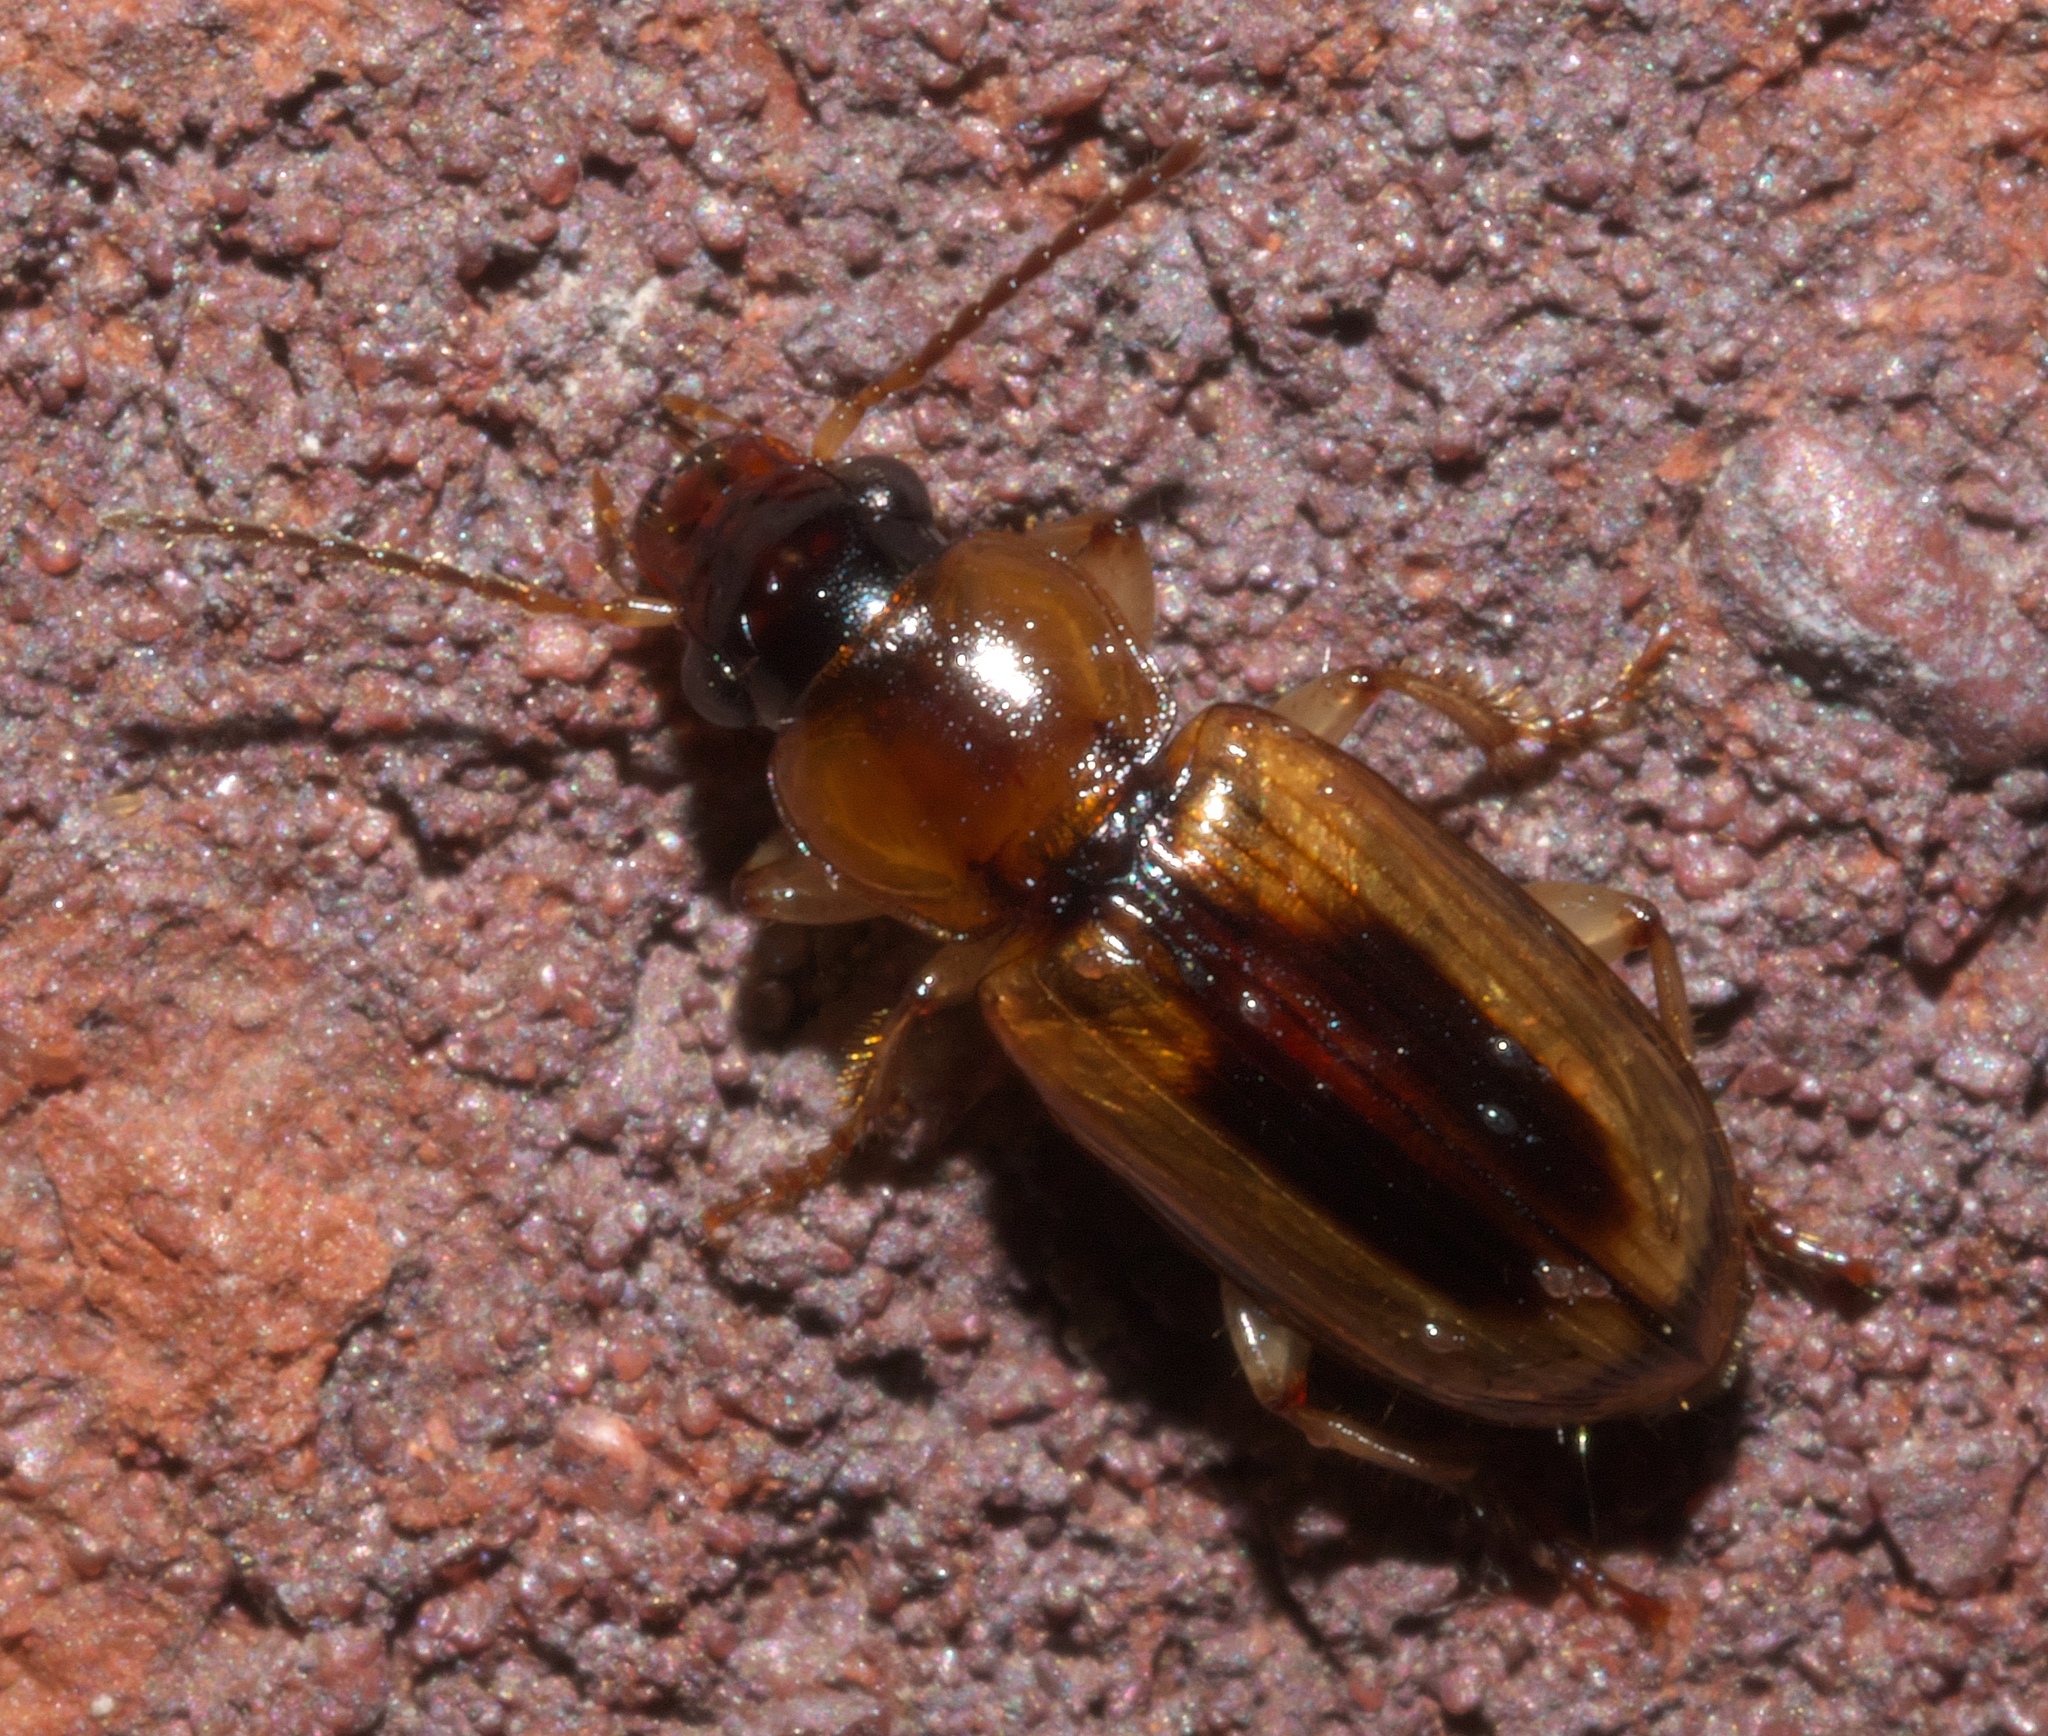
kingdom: Animalia
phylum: Arthropoda
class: Insecta
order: Coleoptera
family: Carabidae
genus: Stenolophus
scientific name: Stenolophus dissimilis
